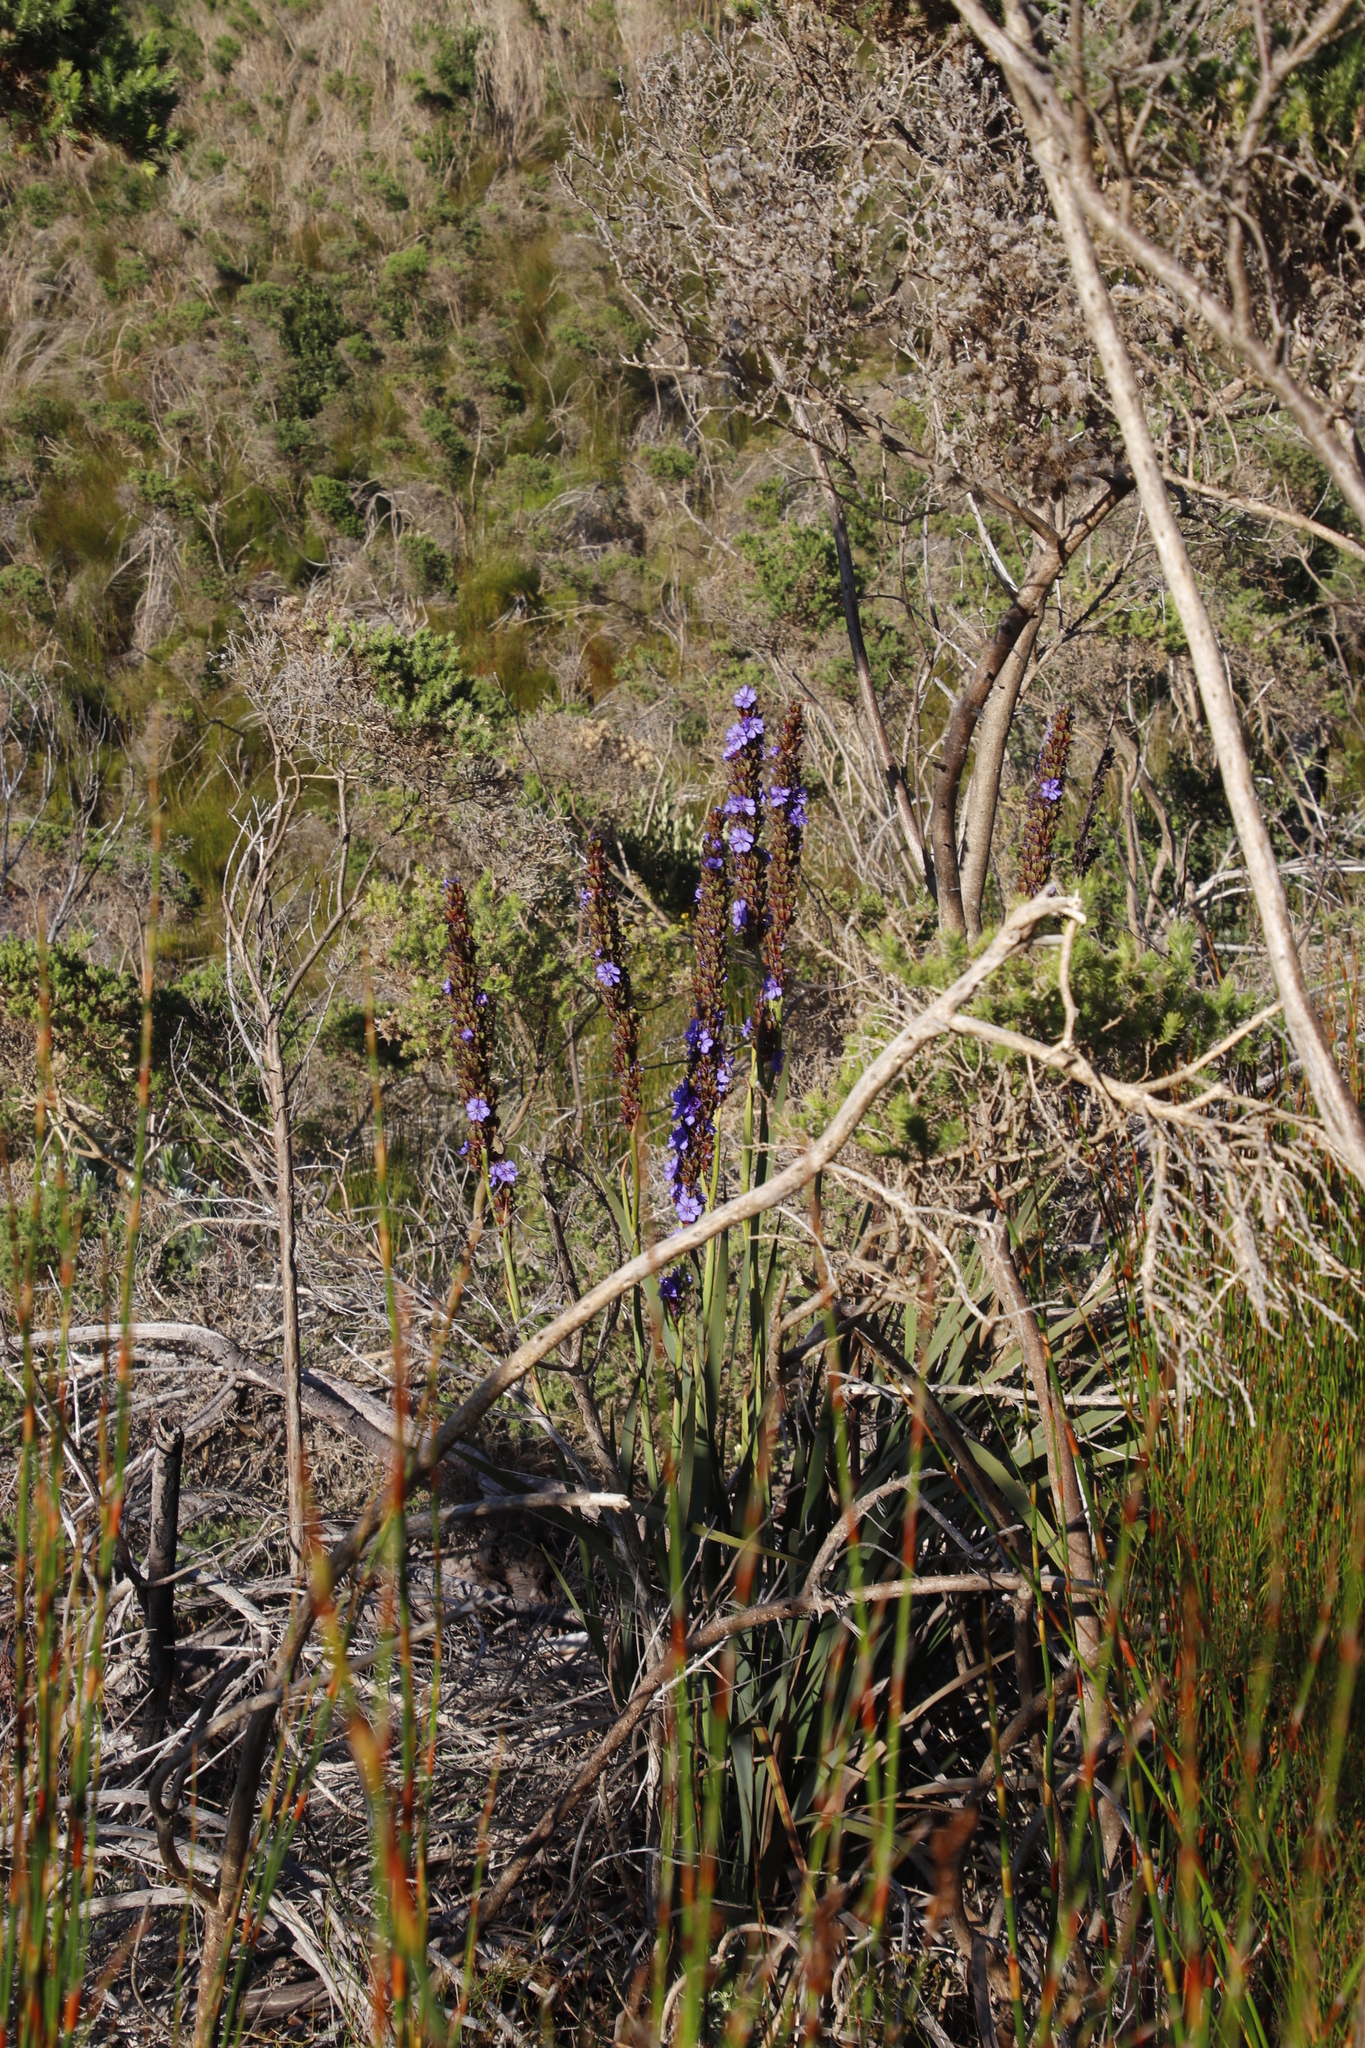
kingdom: Plantae
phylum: Tracheophyta
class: Liliopsida
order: Asparagales
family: Iridaceae
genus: Aristea
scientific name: Aristea bakeri
